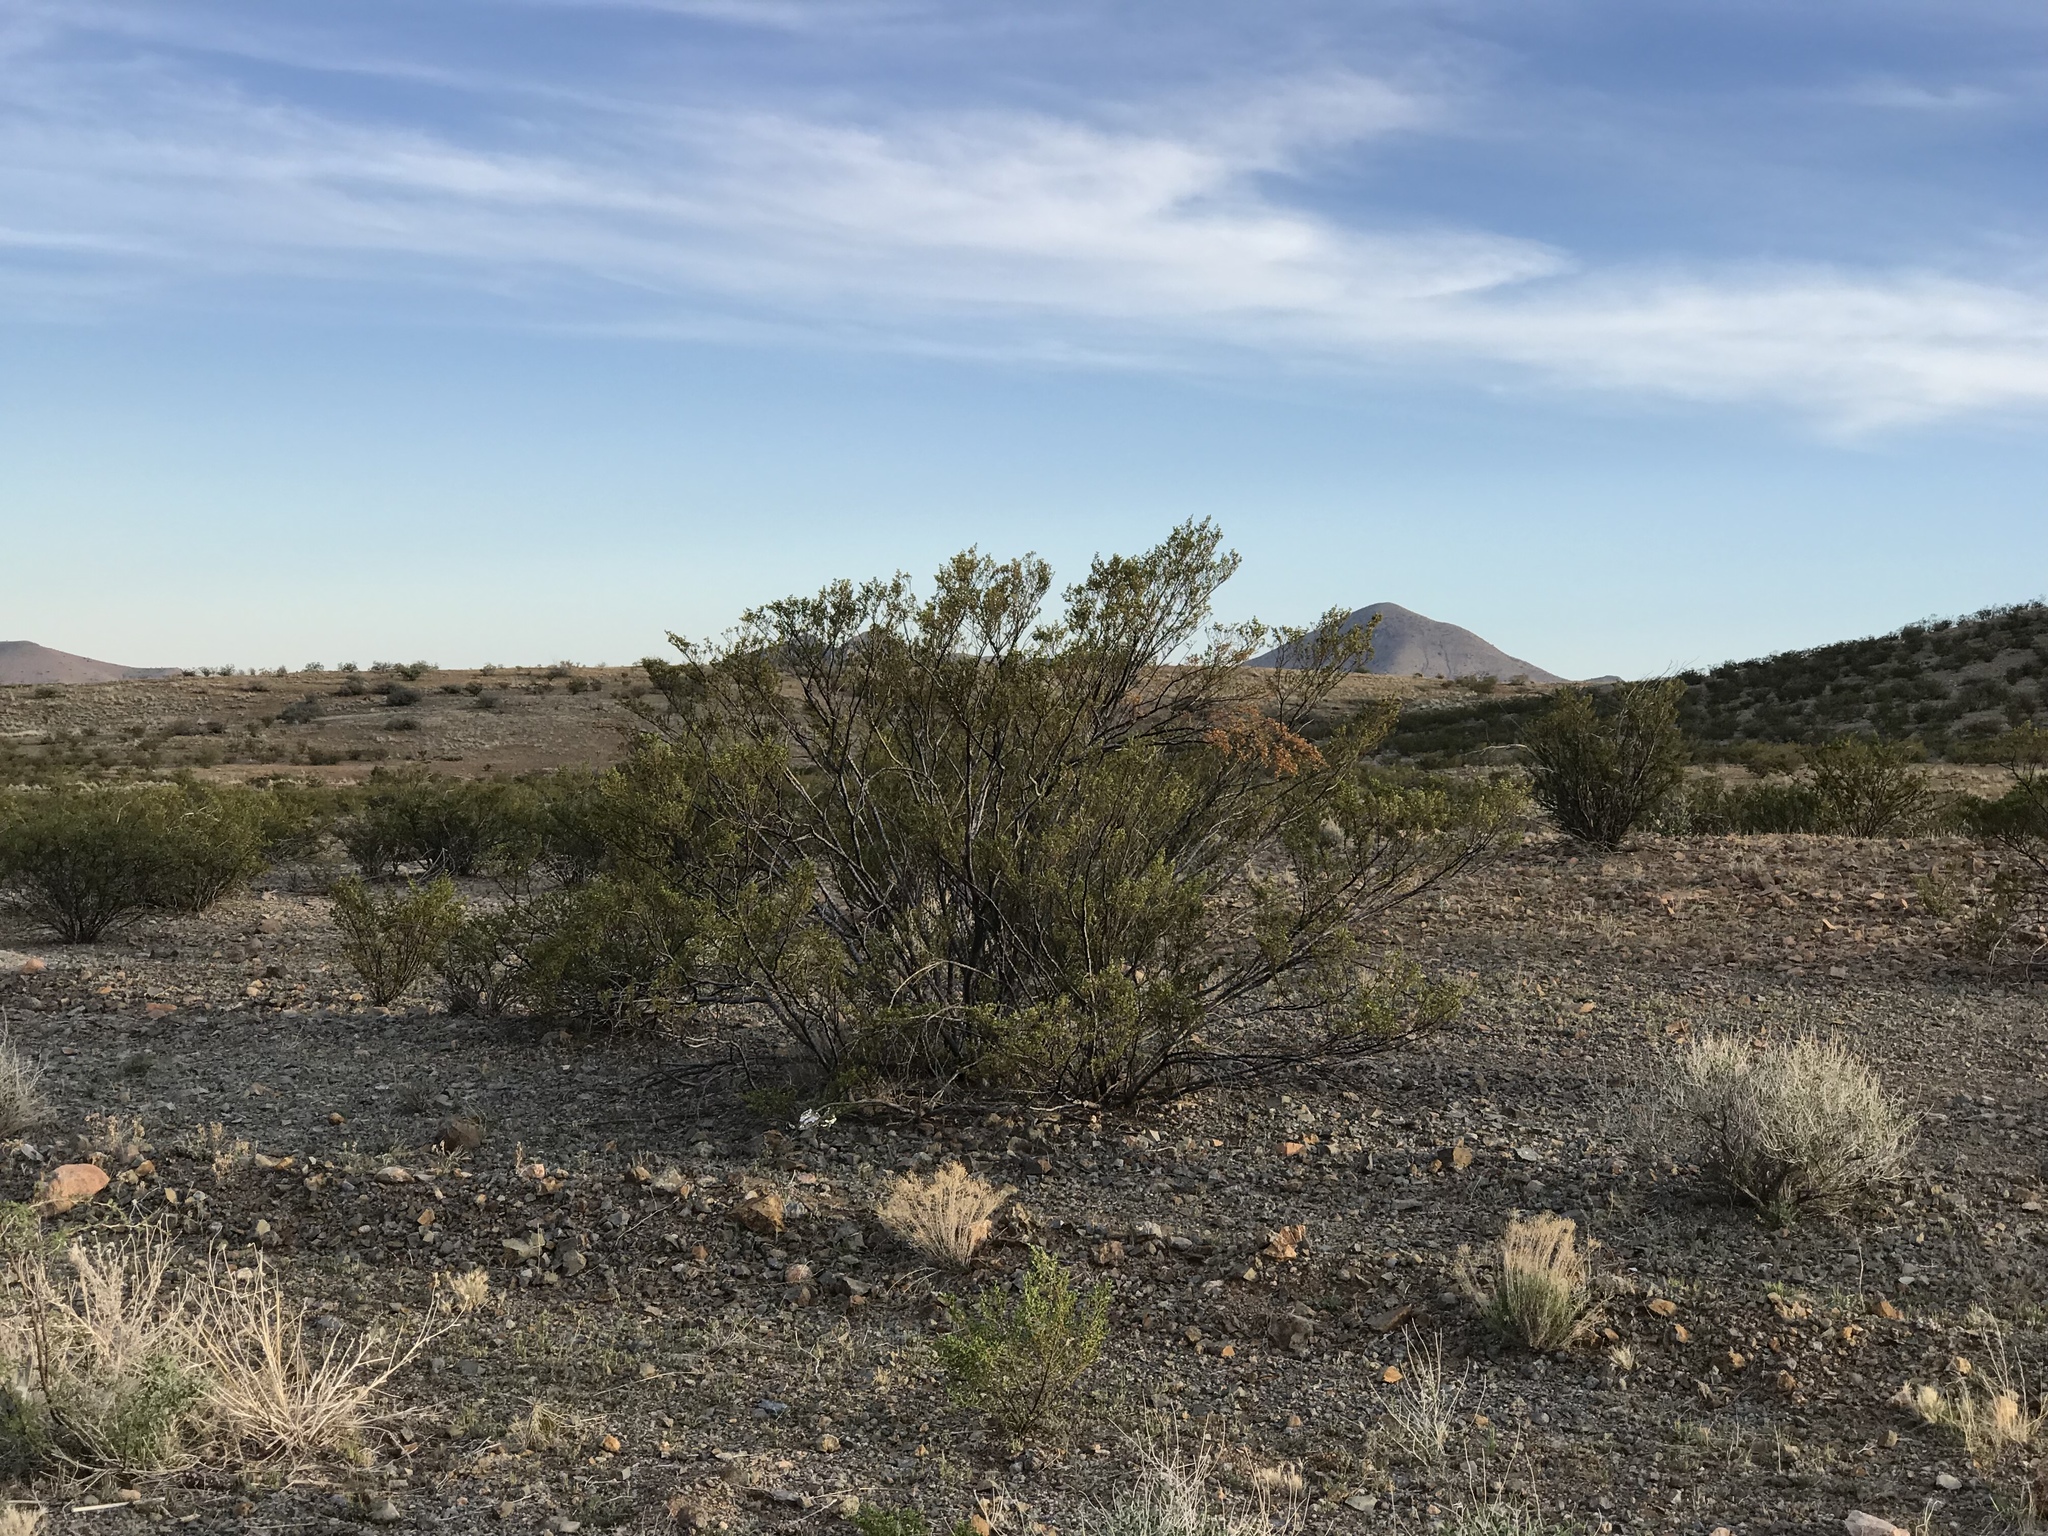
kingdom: Plantae
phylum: Tracheophyta
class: Magnoliopsida
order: Zygophyllales
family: Zygophyllaceae
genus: Larrea
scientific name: Larrea tridentata
